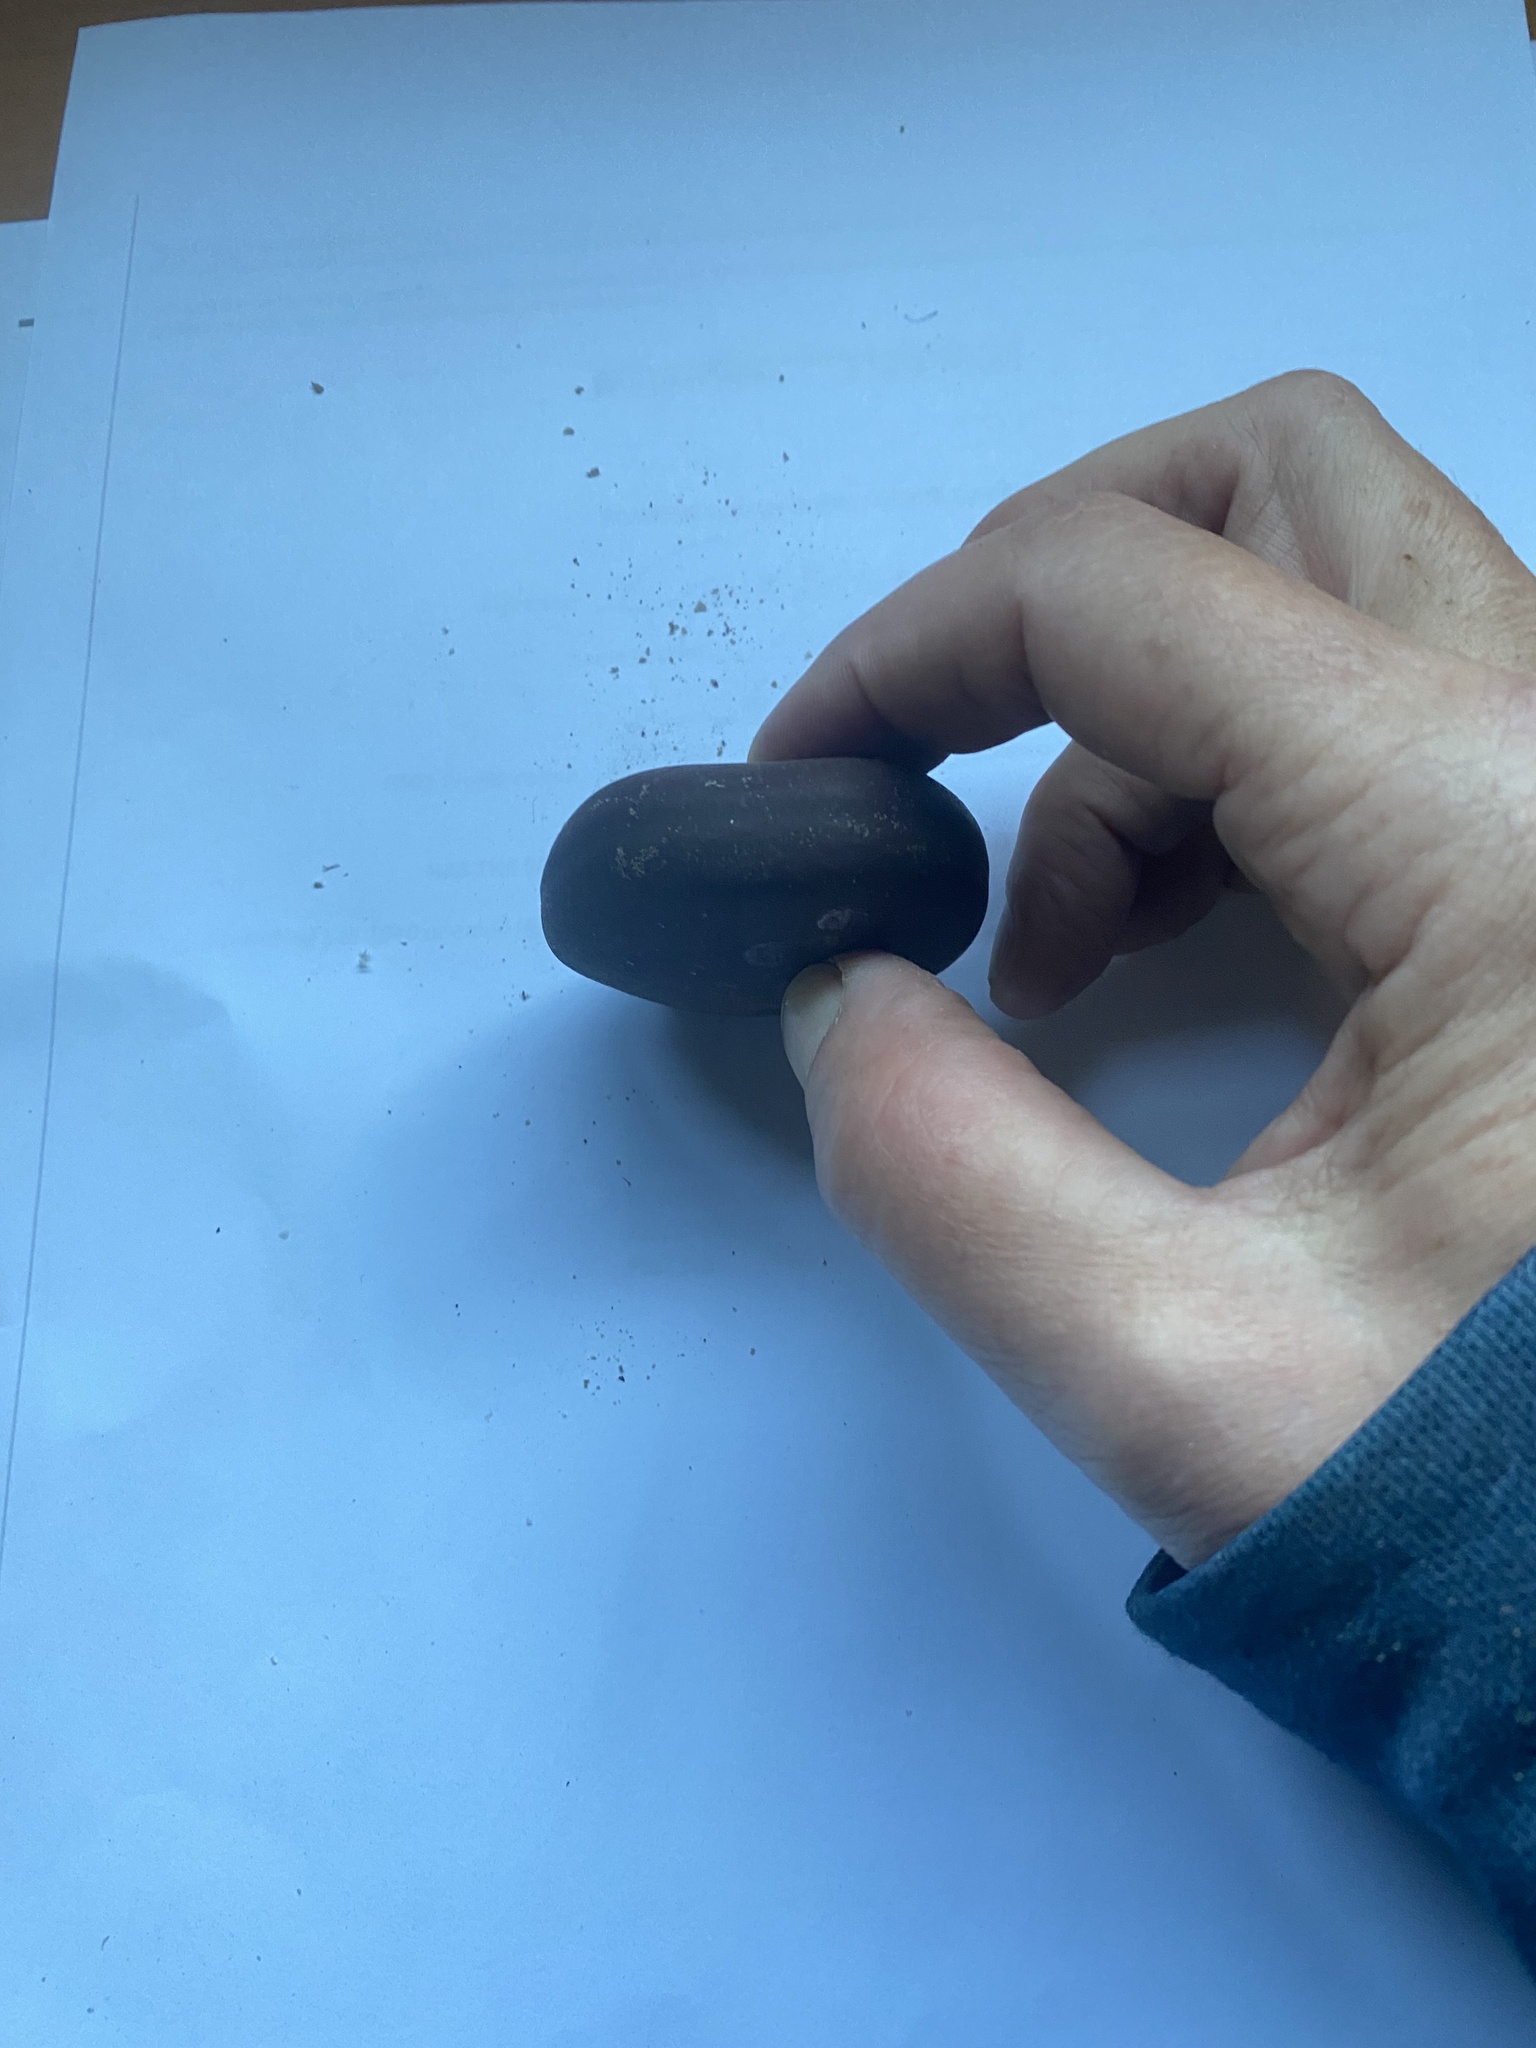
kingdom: Plantae
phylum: Tracheophyta
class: Magnoliopsida
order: Fabales
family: Fabaceae
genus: Entada
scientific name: Entada gigas
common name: Nicker-bean
